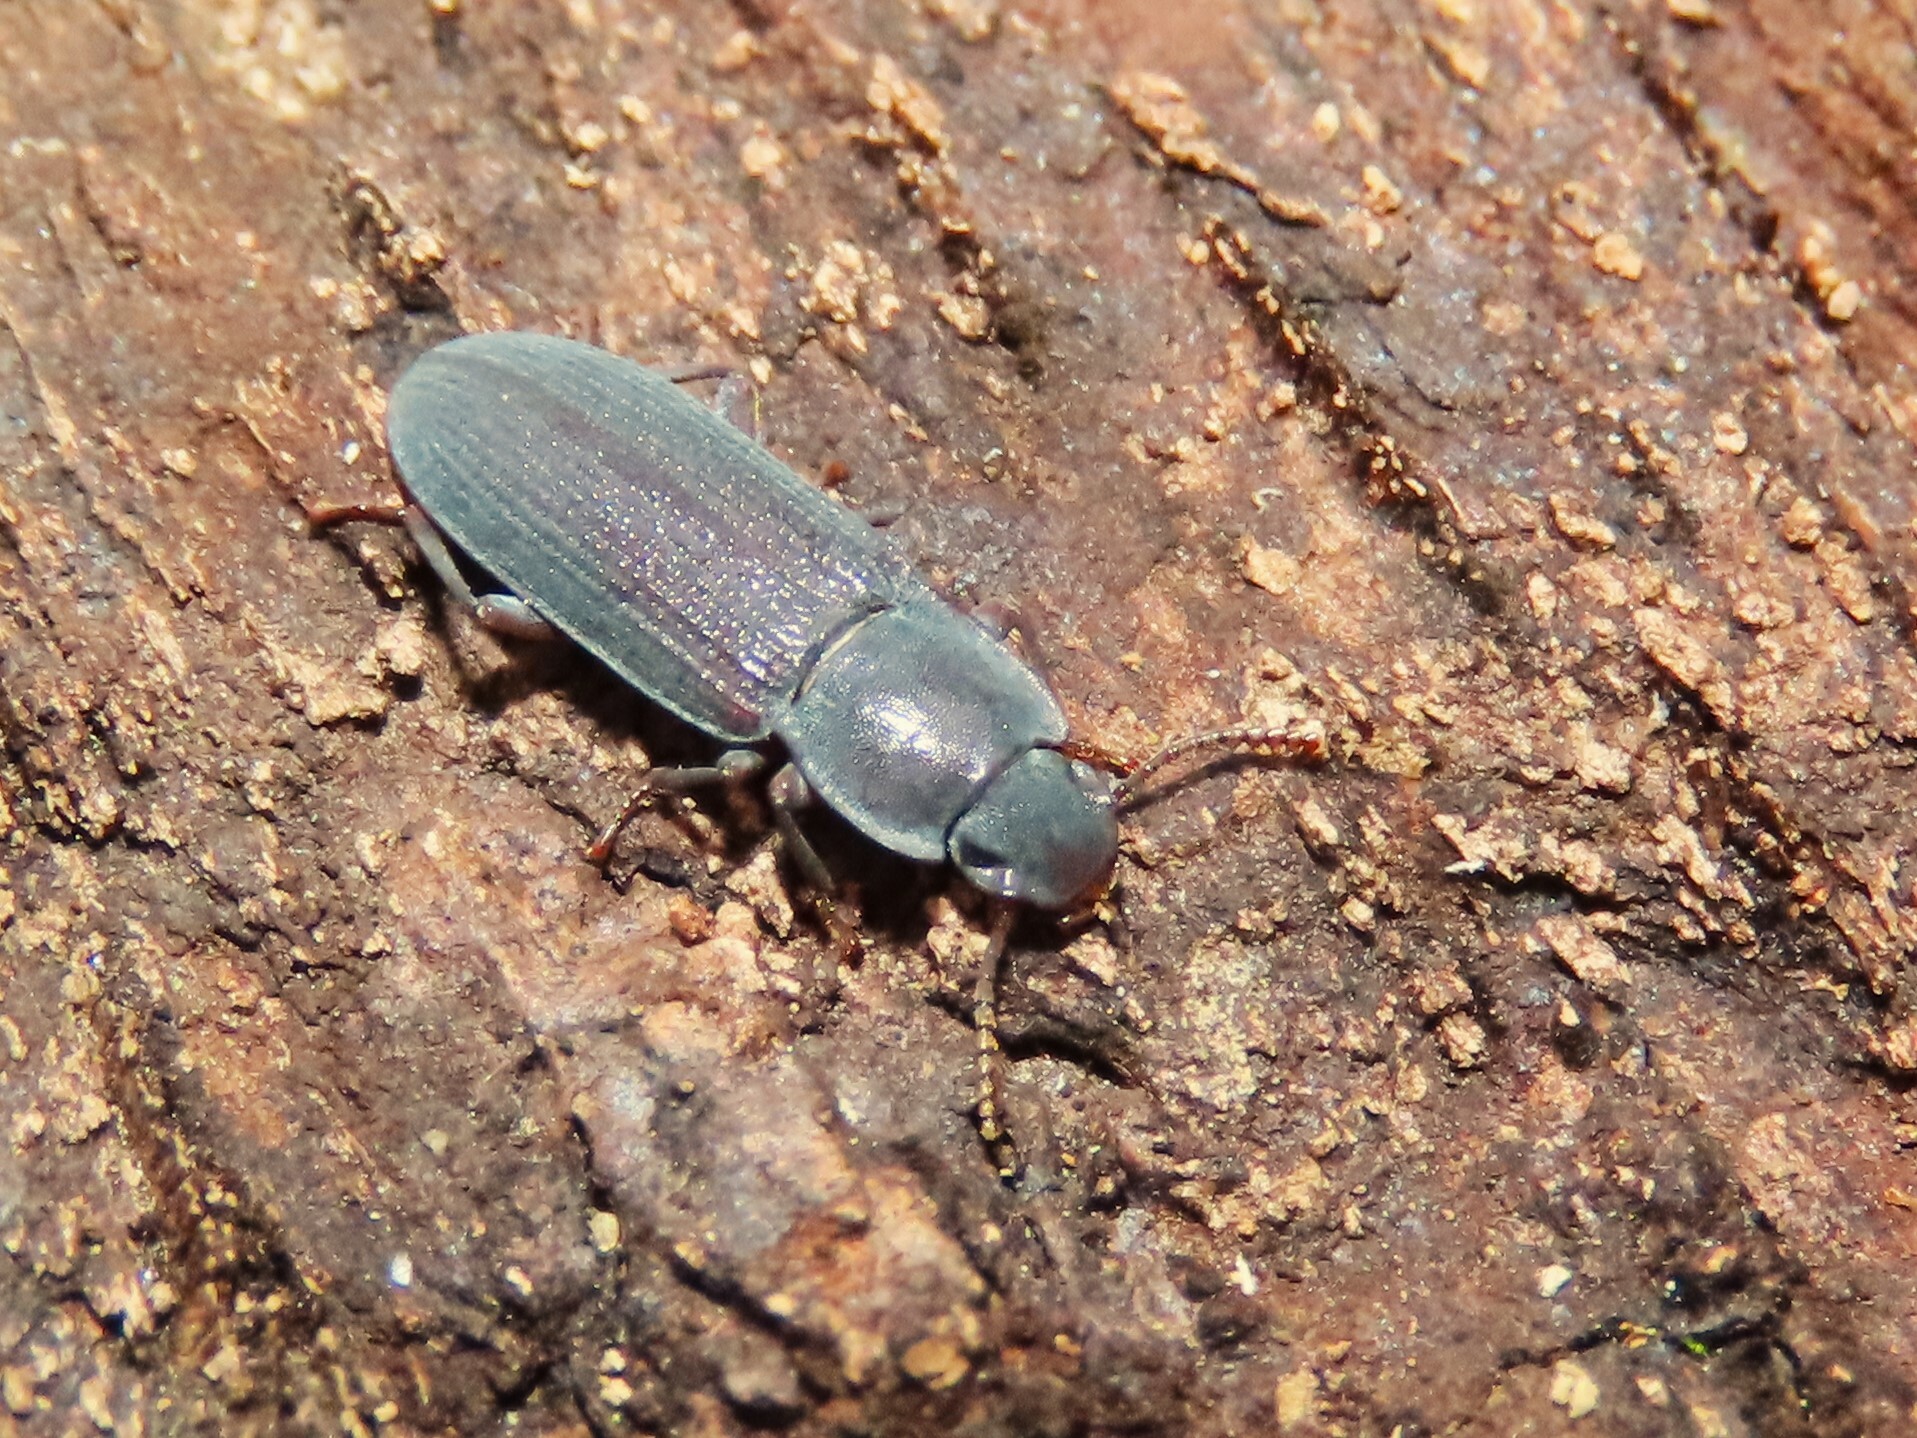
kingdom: Animalia
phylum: Arthropoda
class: Insecta
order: Coleoptera
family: Tenebrionidae
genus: Idiobates
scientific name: Idiobates castaneus
